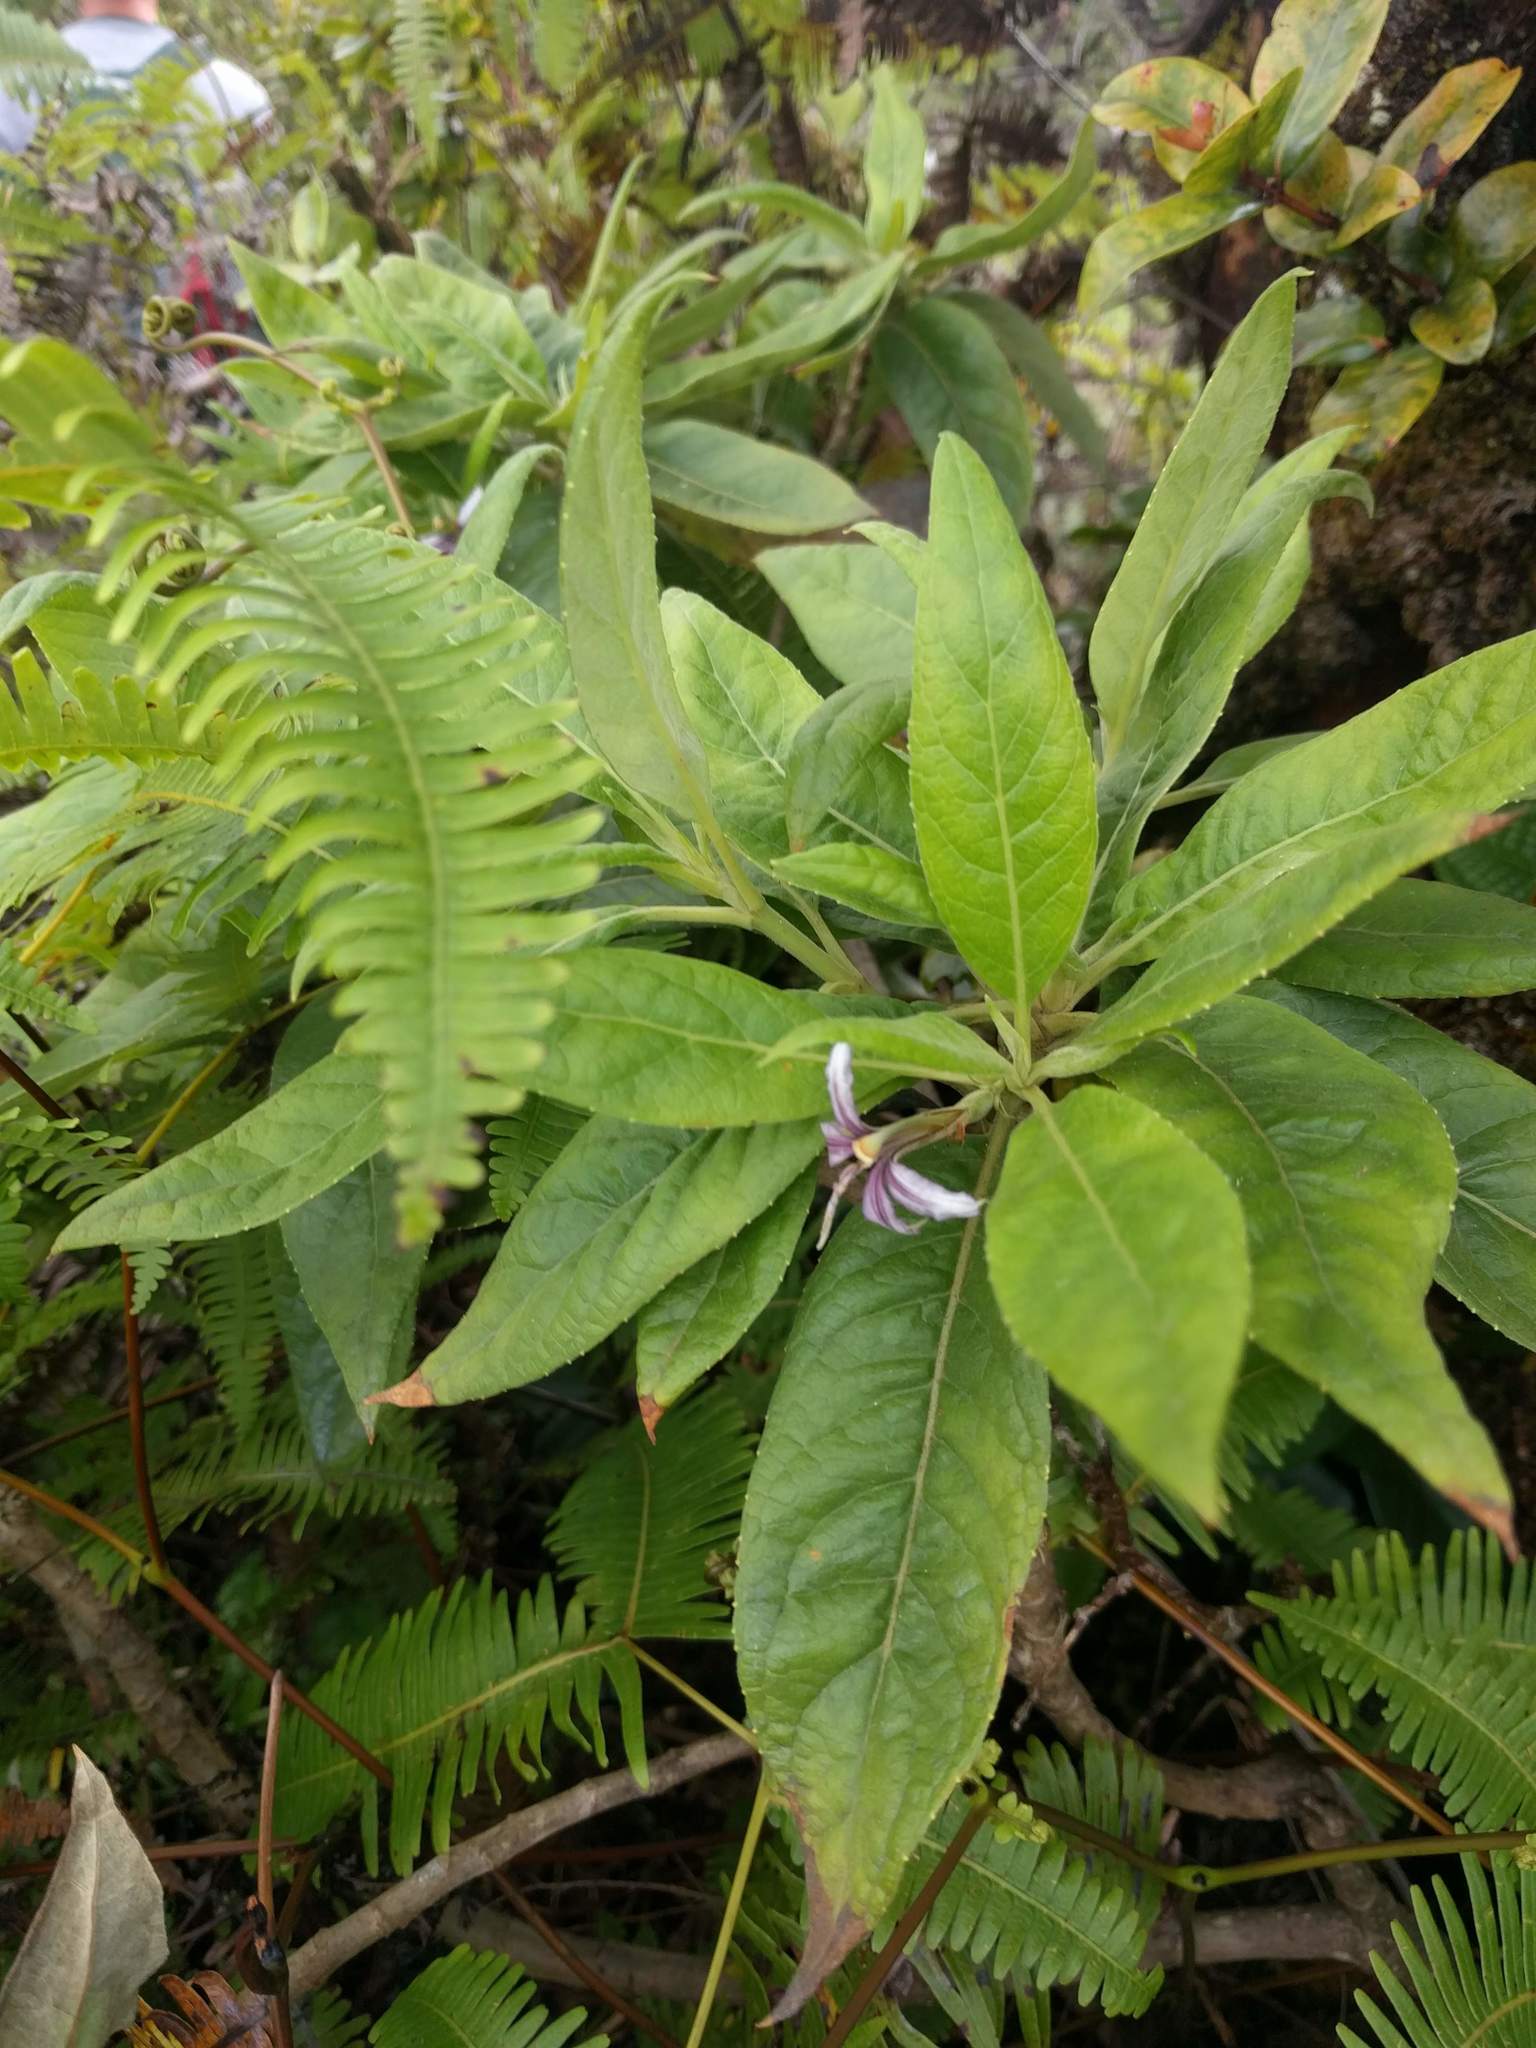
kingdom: Plantae
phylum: Tracheophyta
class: Magnoliopsida
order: Asterales
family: Goodeniaceae
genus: Scaevola
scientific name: Scaevola mollis
